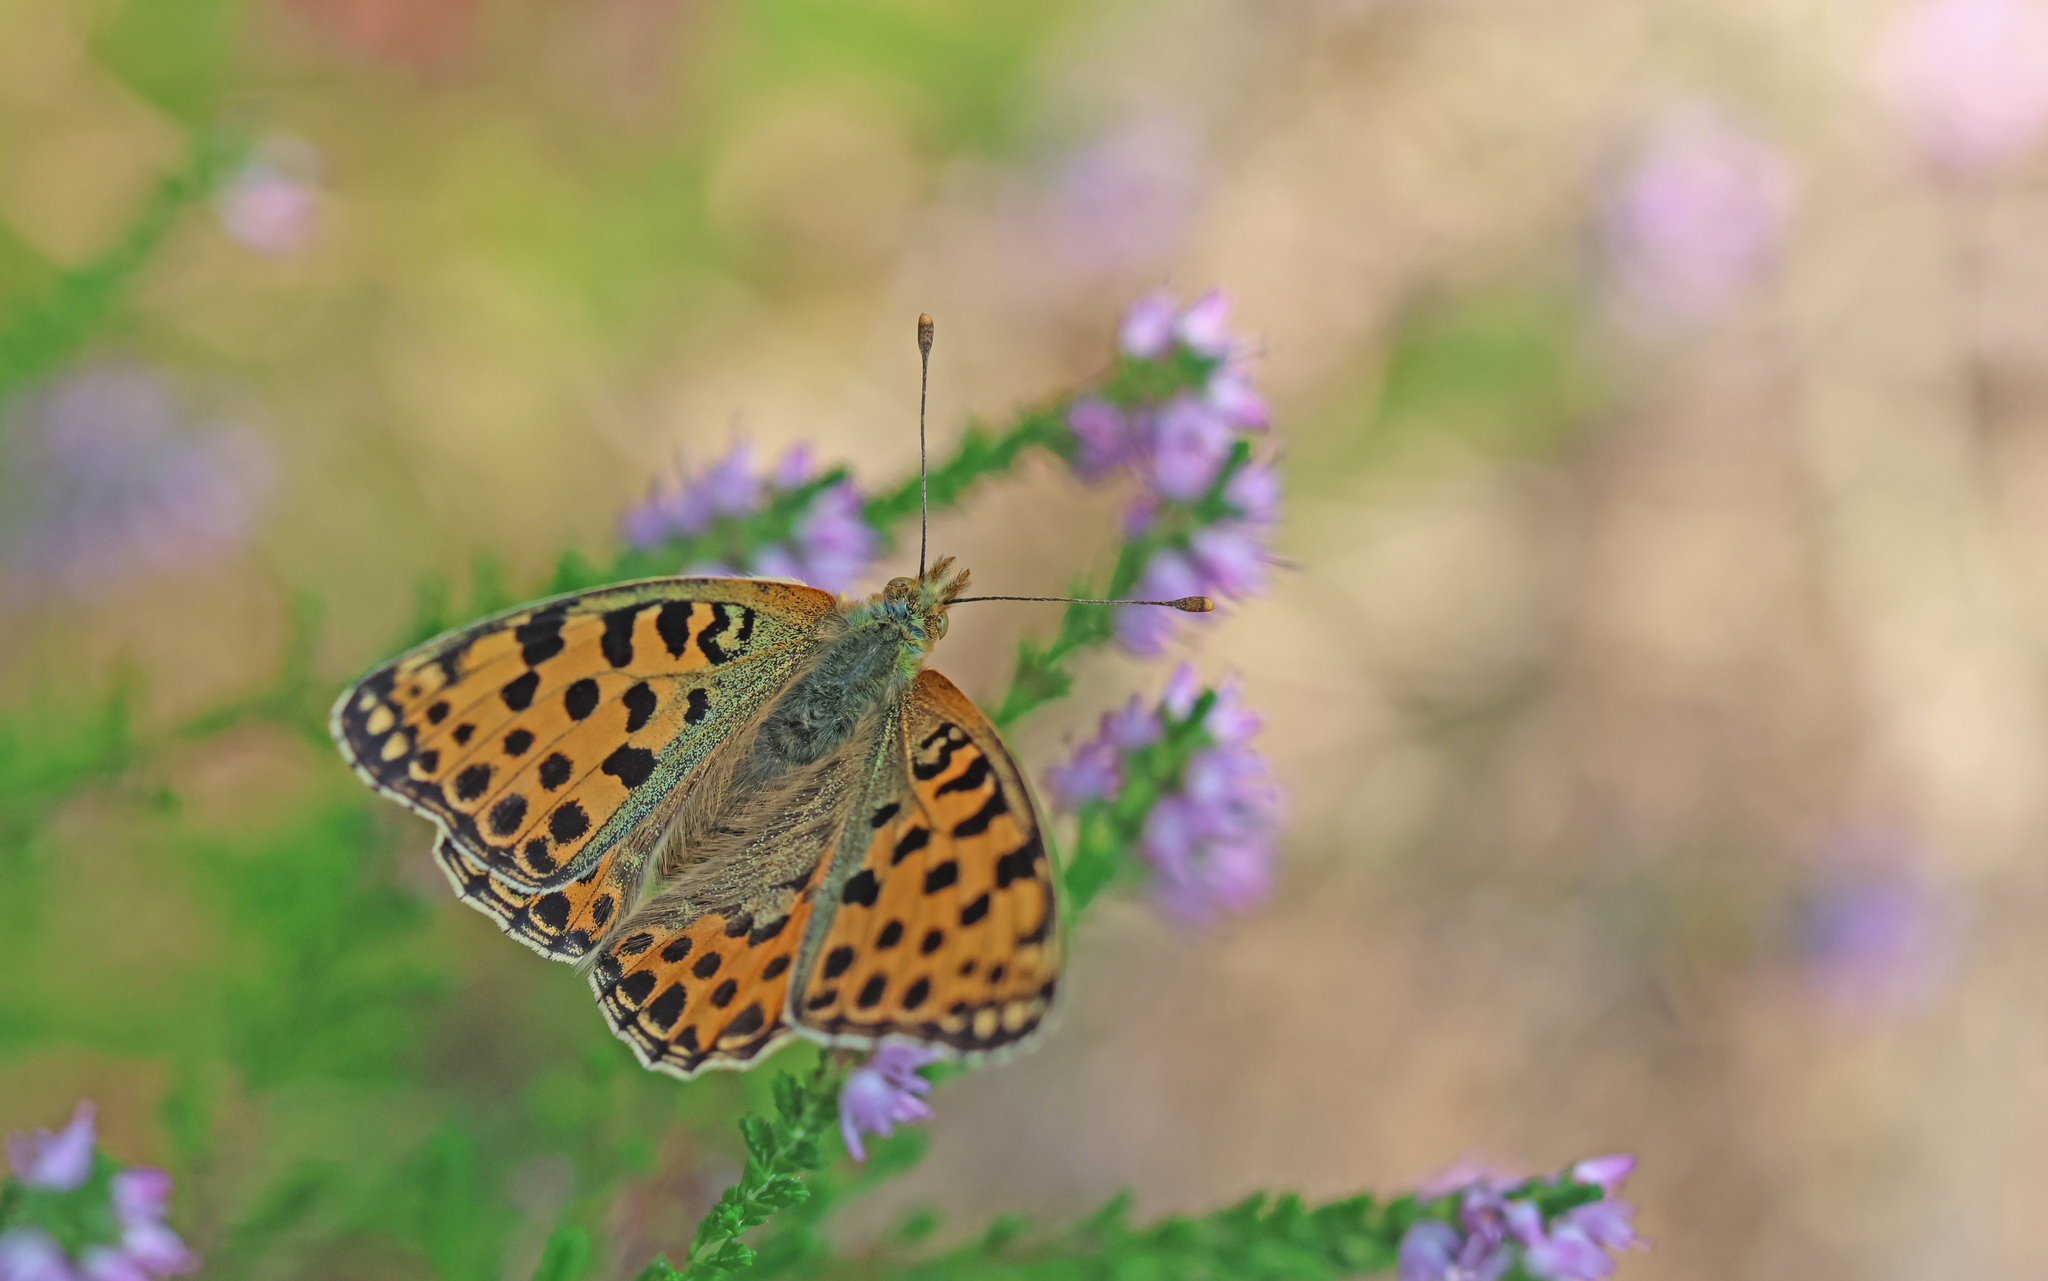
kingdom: Animalia
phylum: Arthropoda
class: Insecta
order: Lepidoptera
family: Nymphalidae
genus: Issoria
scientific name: Issoria lathonia
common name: Queen of spain fritillary
